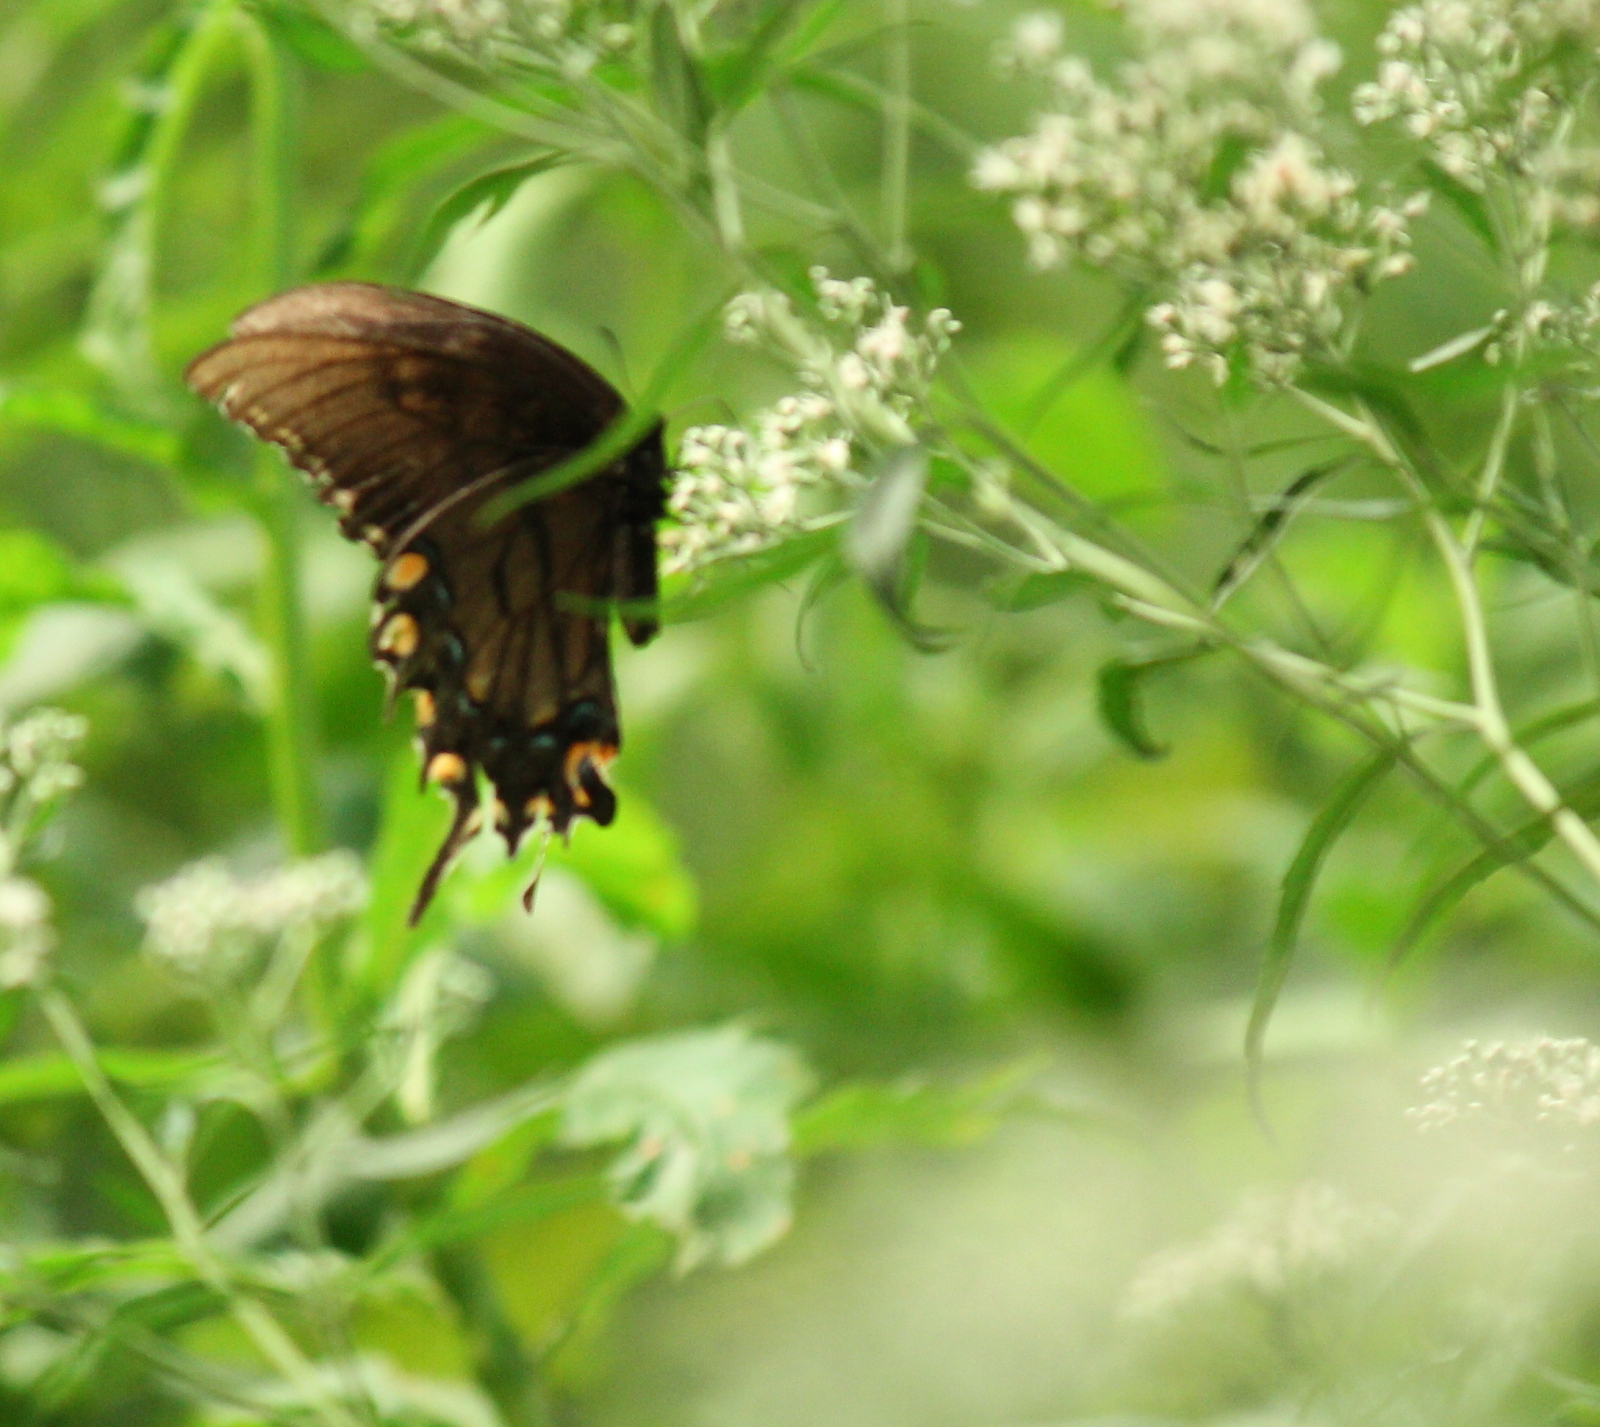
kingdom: Animalia
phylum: Arthropoda
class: Insecta
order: Lepidoptera
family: Papilionidae
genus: Papilio
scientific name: Papilio glaucus
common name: Tiger swallowtail
